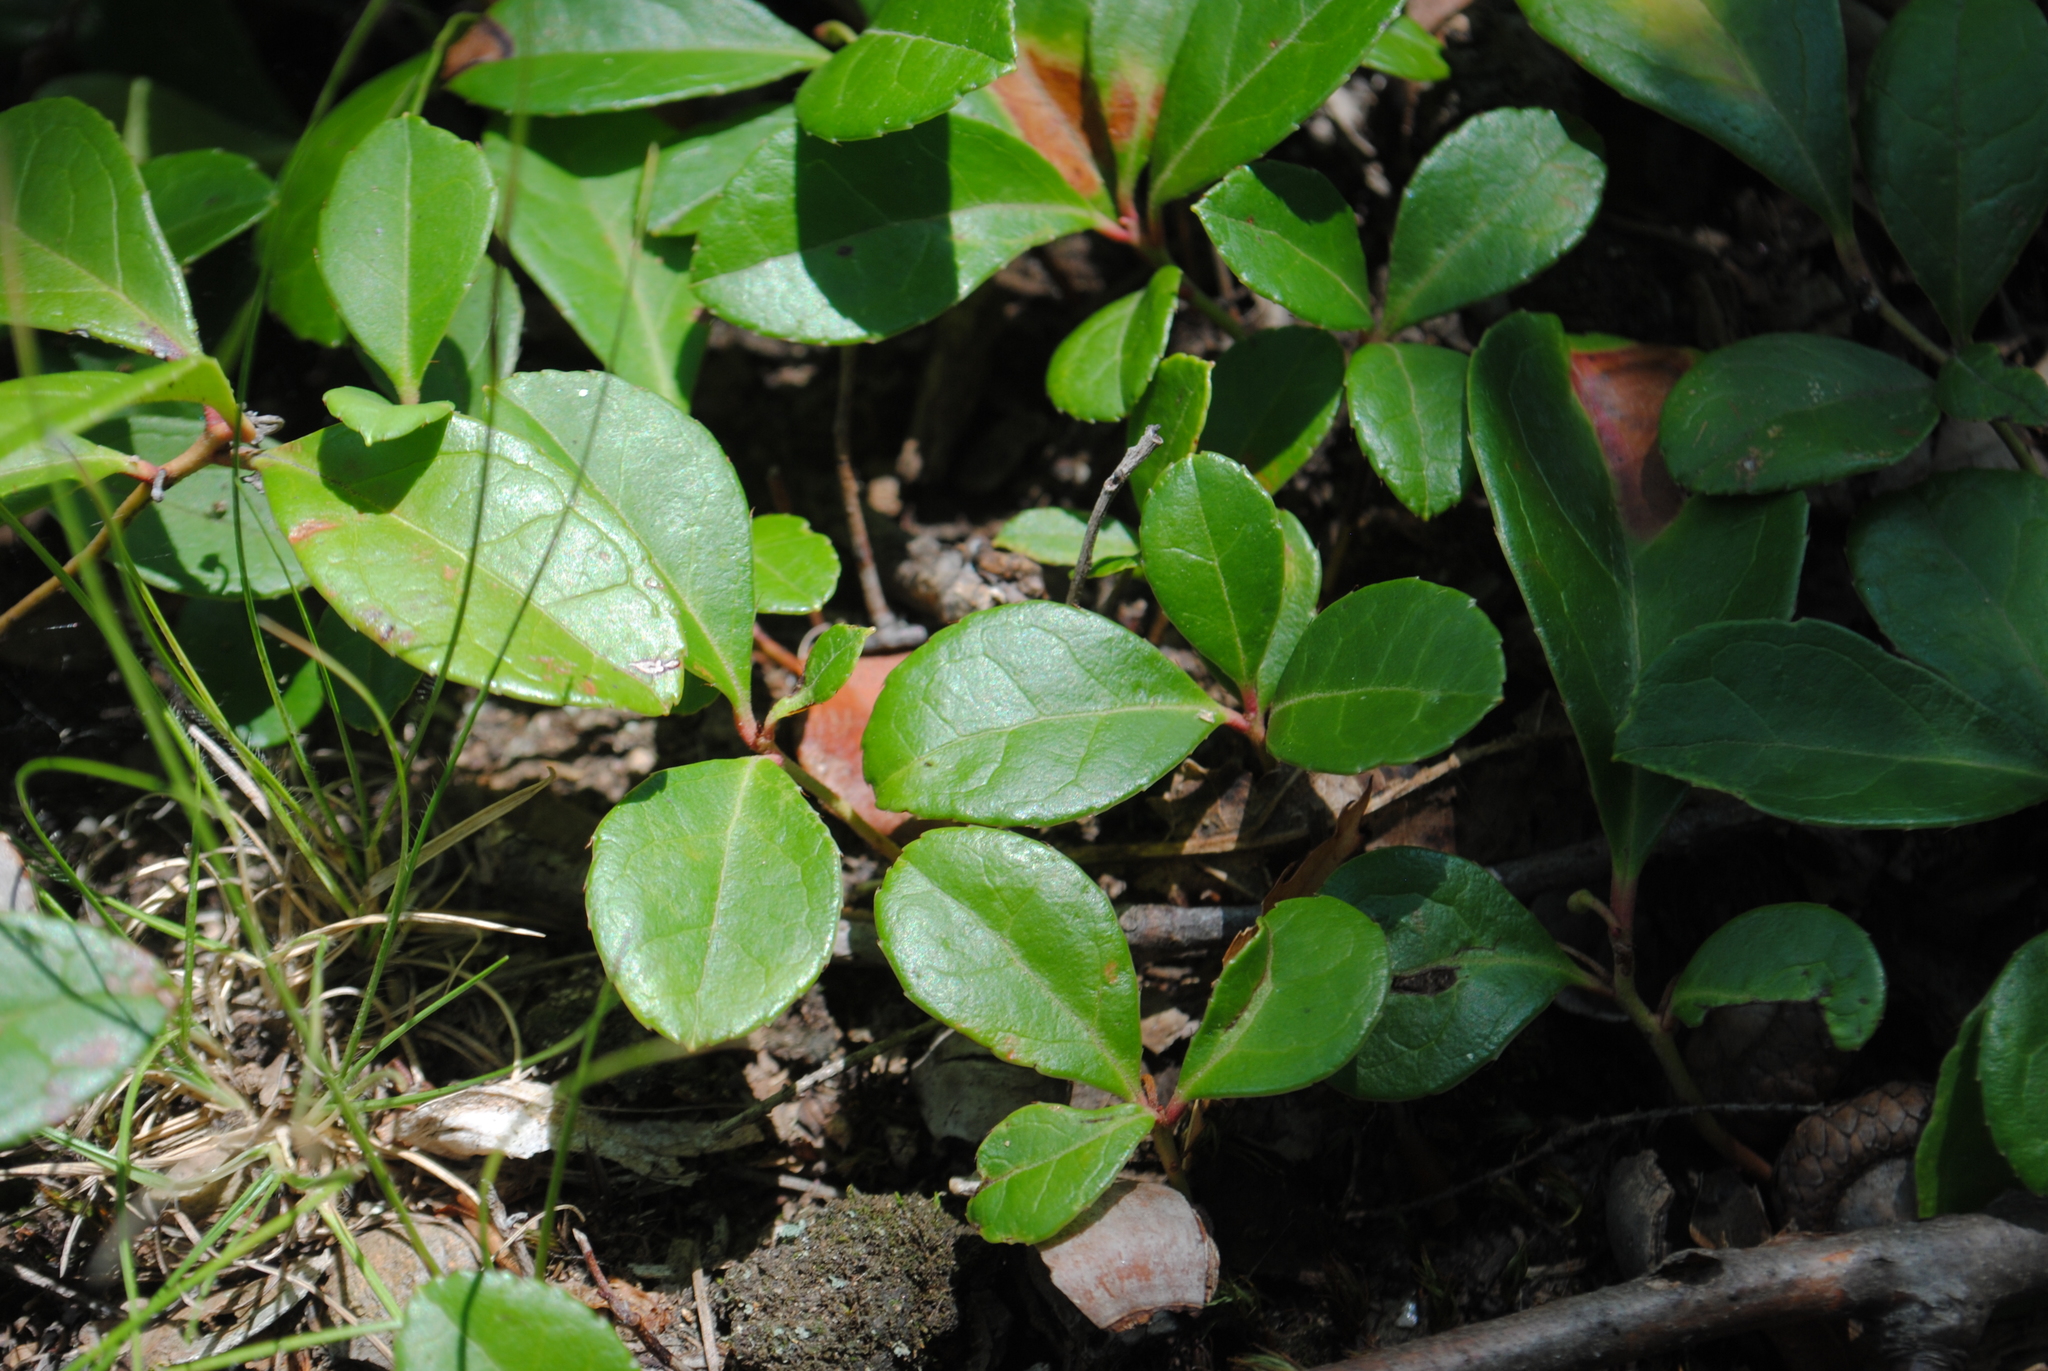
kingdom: Plantae
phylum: Tracheophyta
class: Magnoliopsida
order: Ericales
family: Ericaceae
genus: Gaultheria
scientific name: Gaultheria procumbens
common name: Checkerberry
